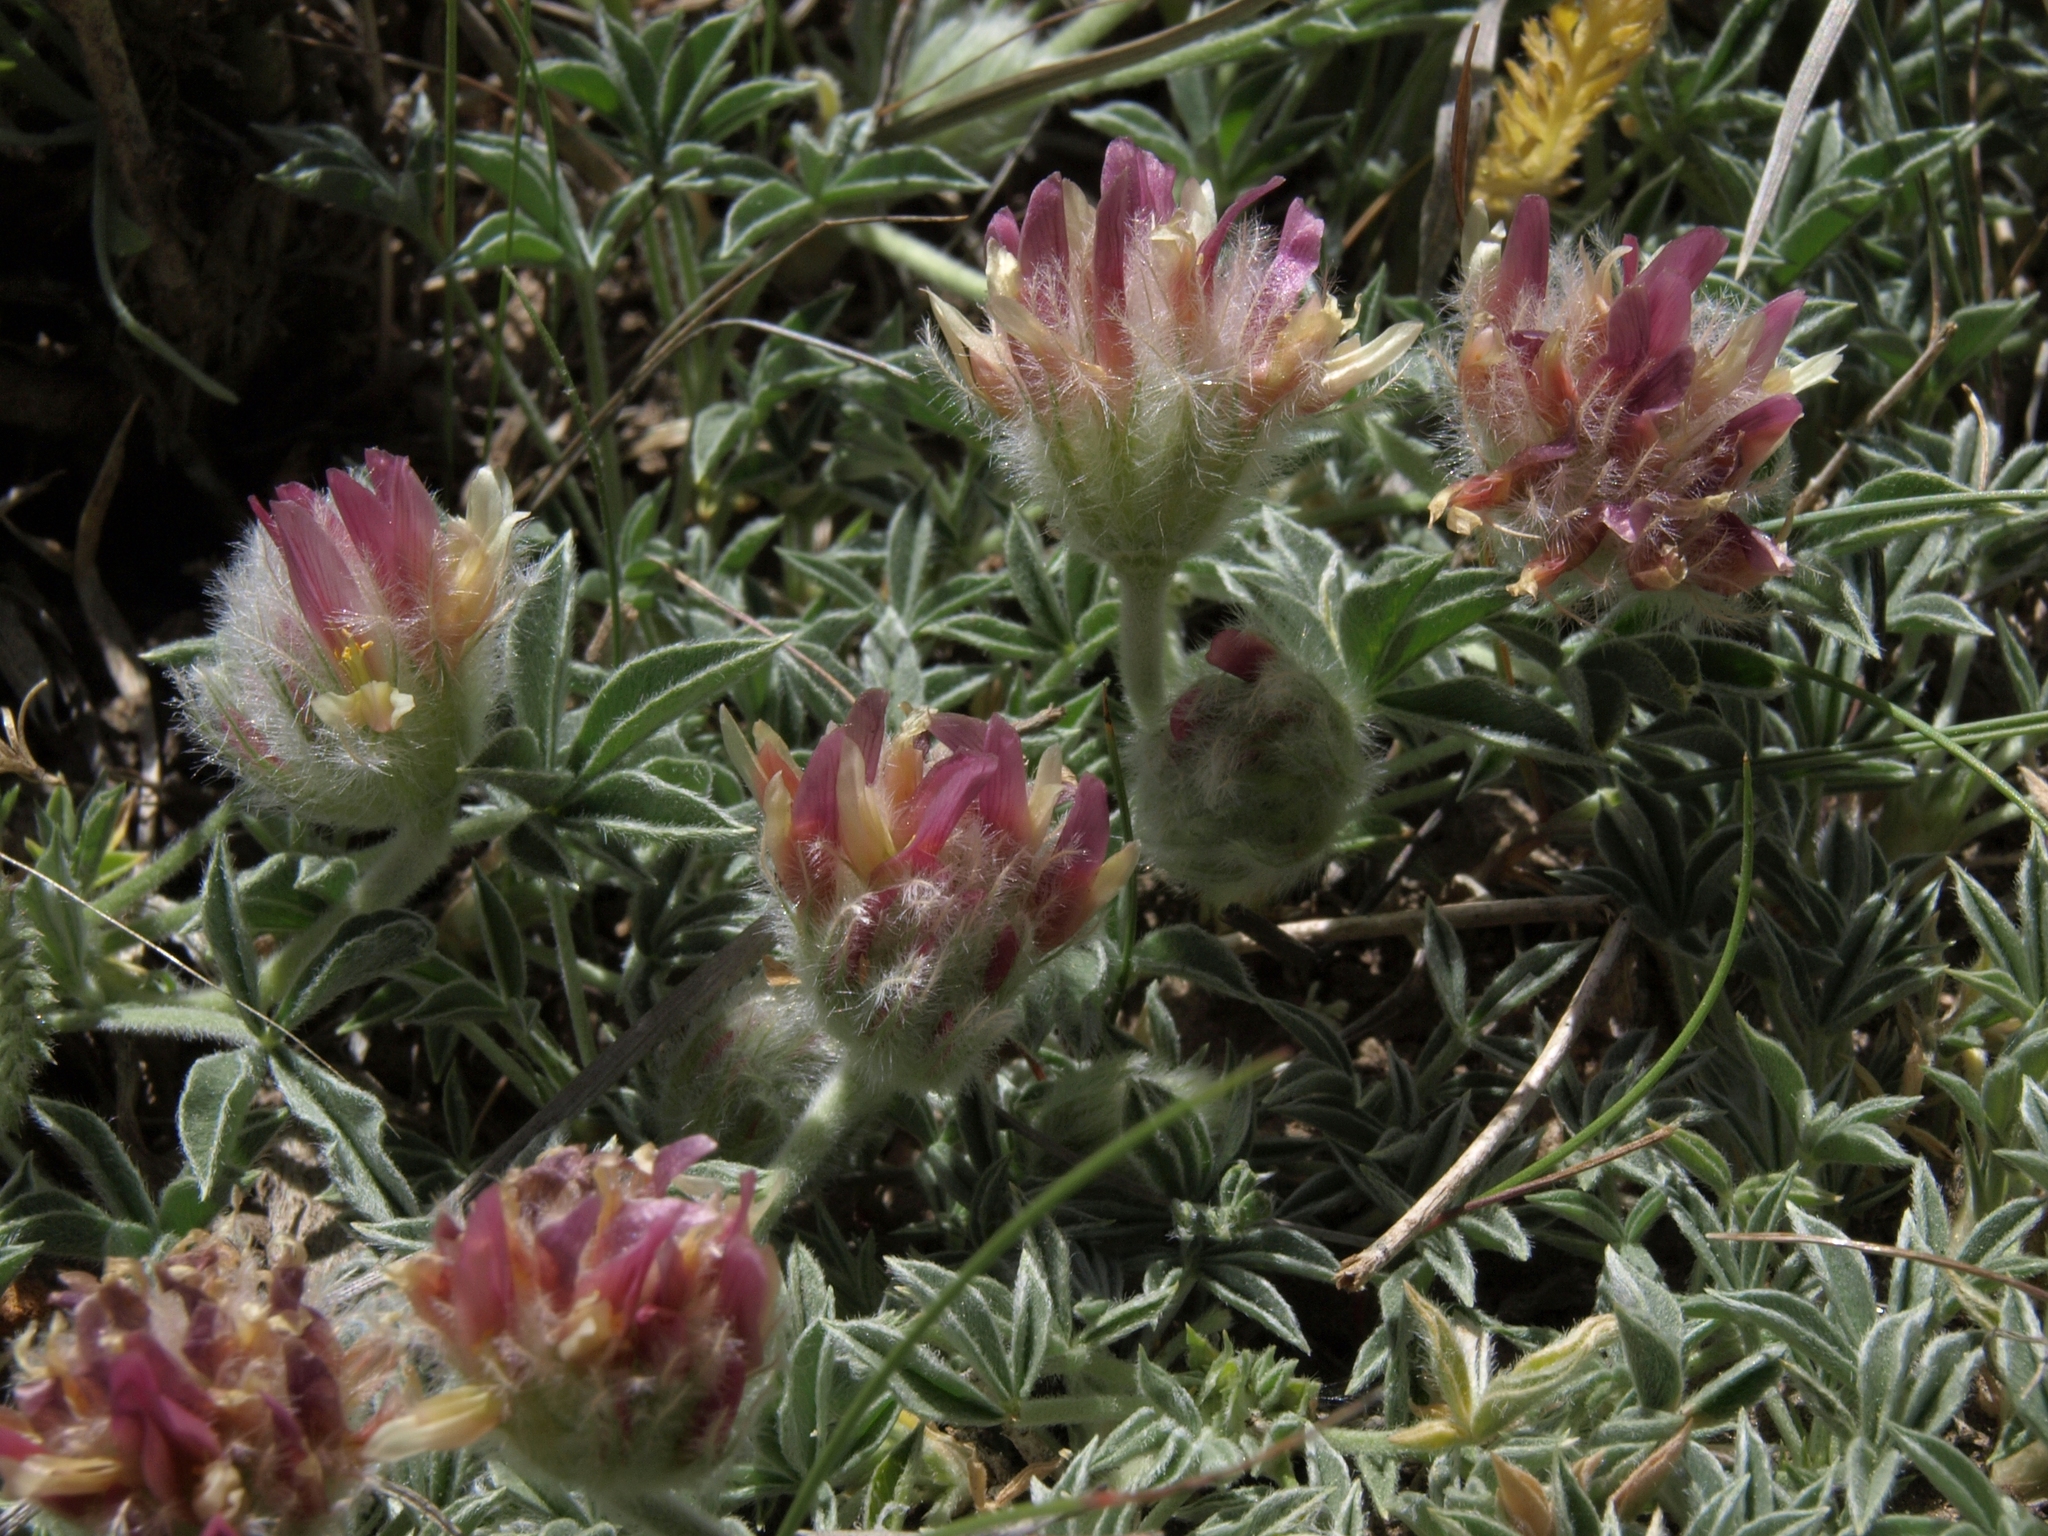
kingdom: Plantae
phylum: Tracheophyta
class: Magnoliopsida
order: Fabales
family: Fabaceae
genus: Trifolium
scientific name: Trifolium andersonii
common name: Anderson's clover
